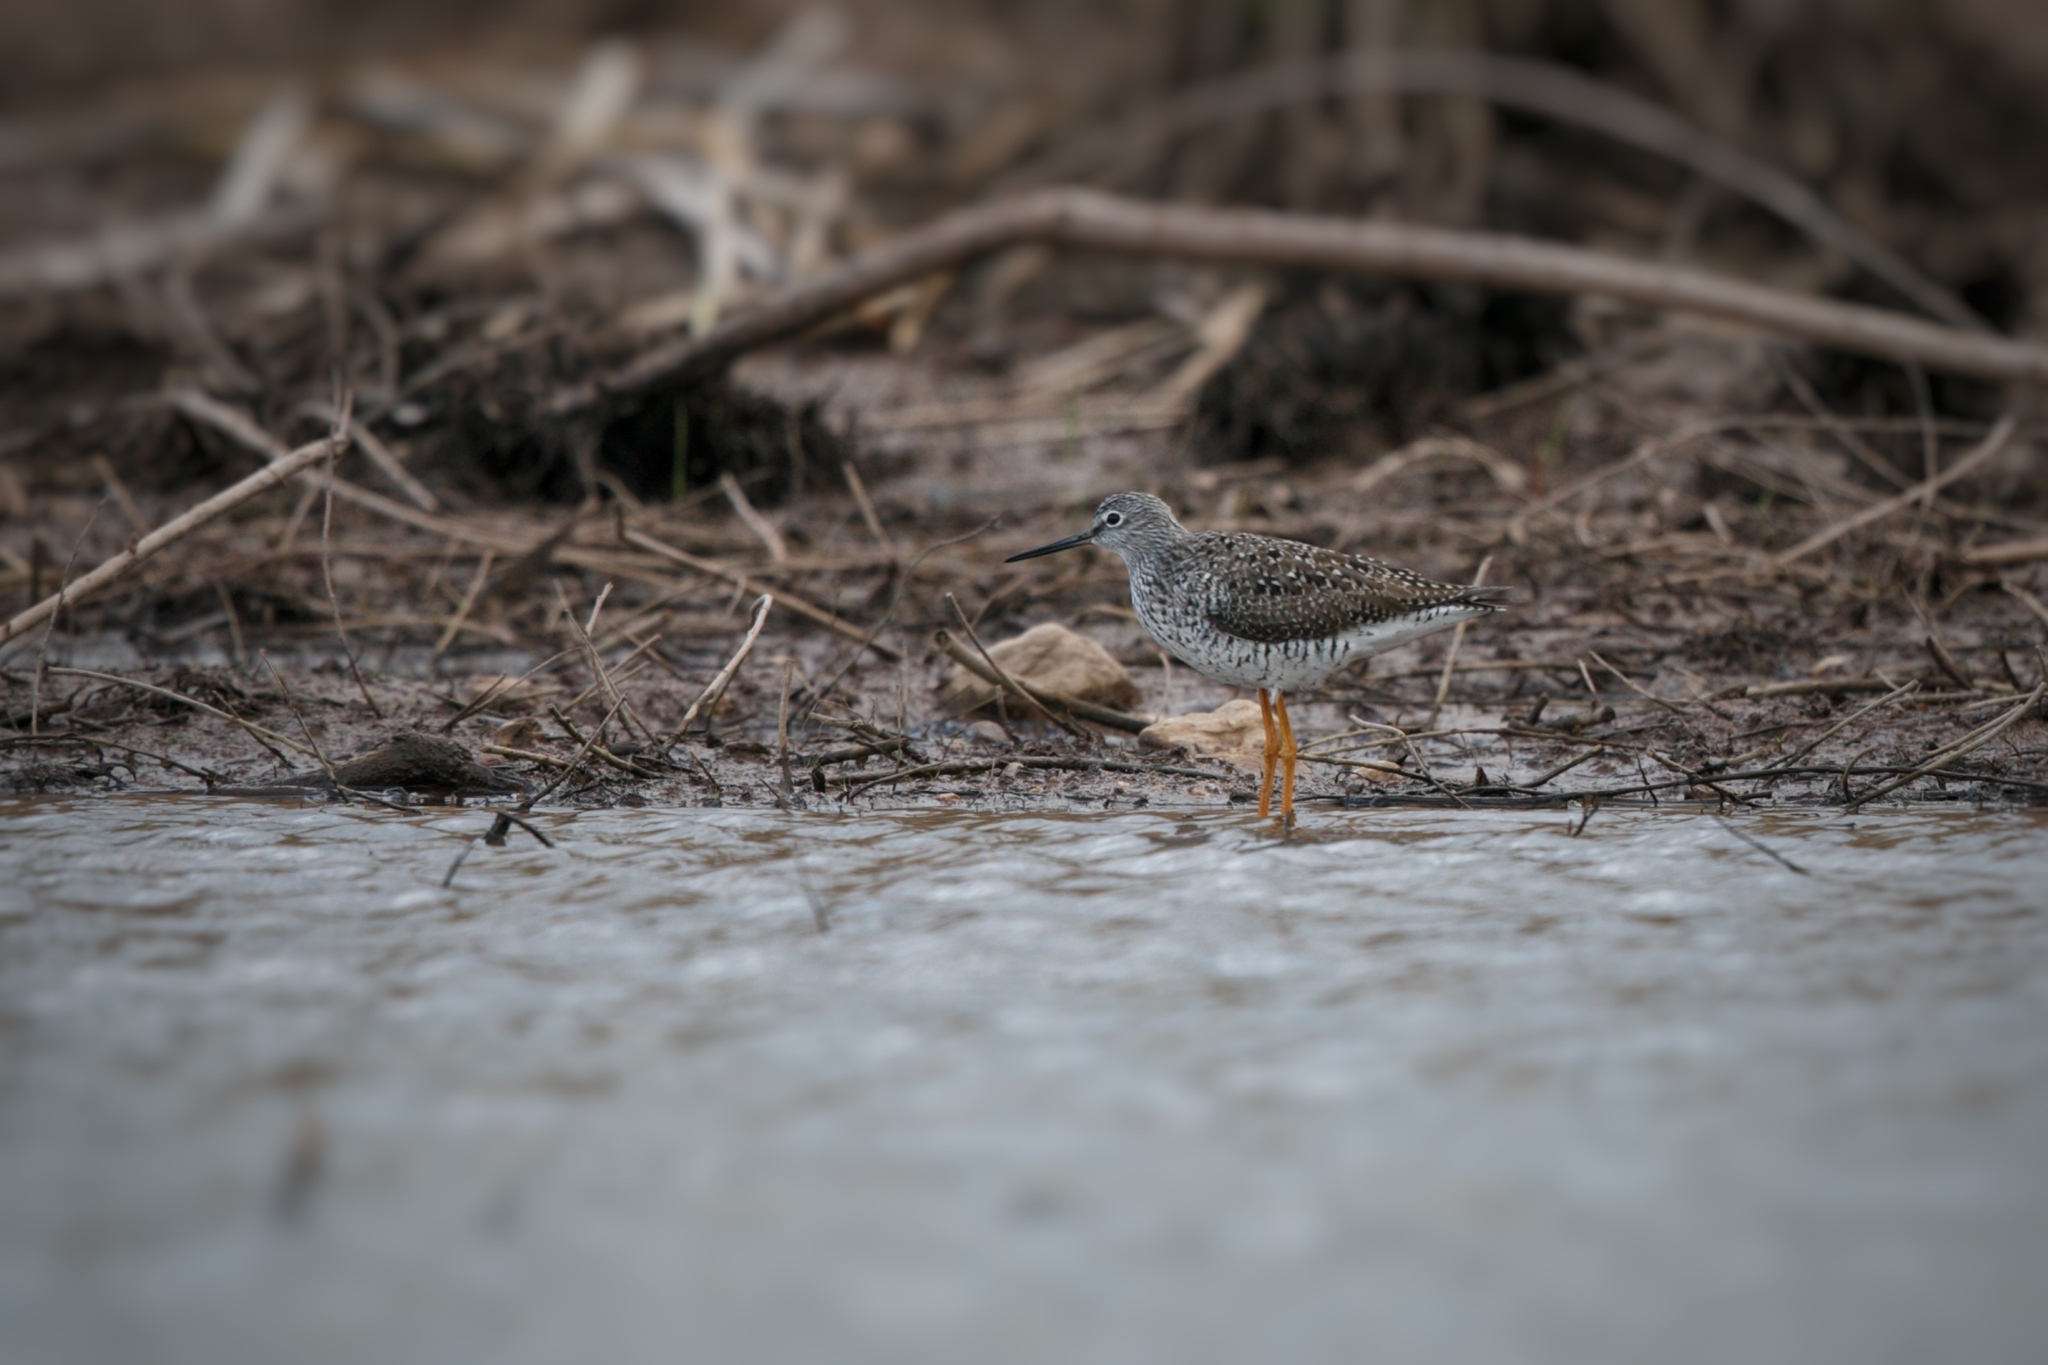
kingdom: Animalia
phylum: Chordata
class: Aves
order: Charadriiformes
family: Scolopacidae
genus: Tringa
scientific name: Tringa melanoleuca
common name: Greater yellowlegs
